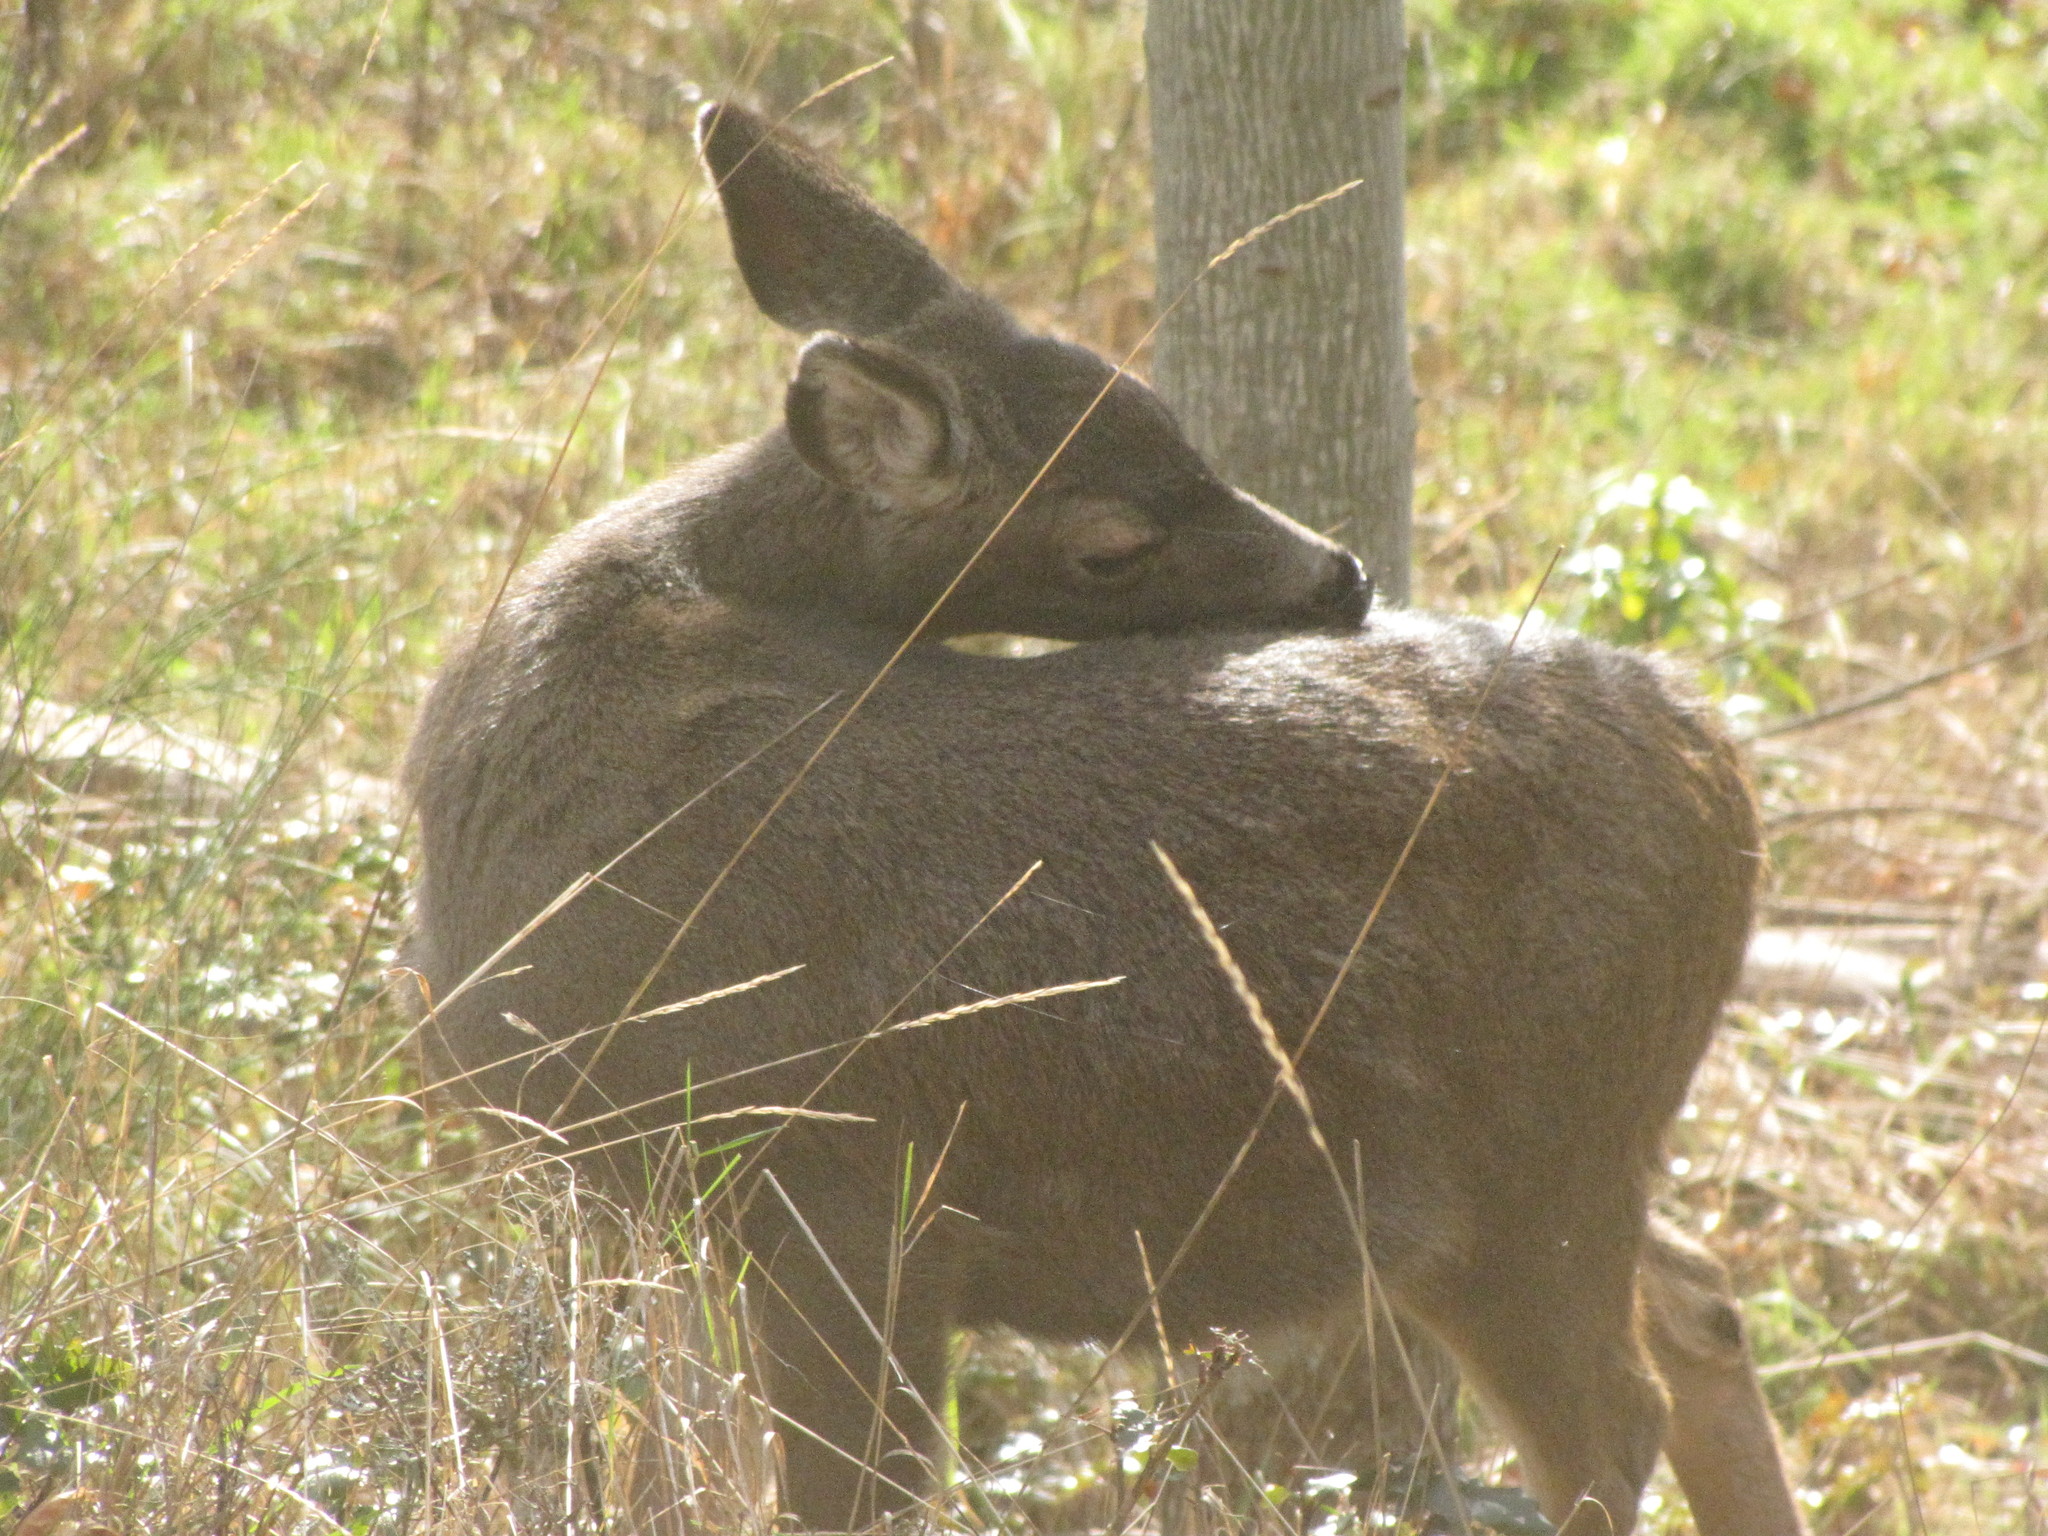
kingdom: Animalia
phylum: Chordata
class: Mammalia
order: Artiodactyla
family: Cervidae
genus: Odocoileus
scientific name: Odocoileus hemionus
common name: Mule deer
